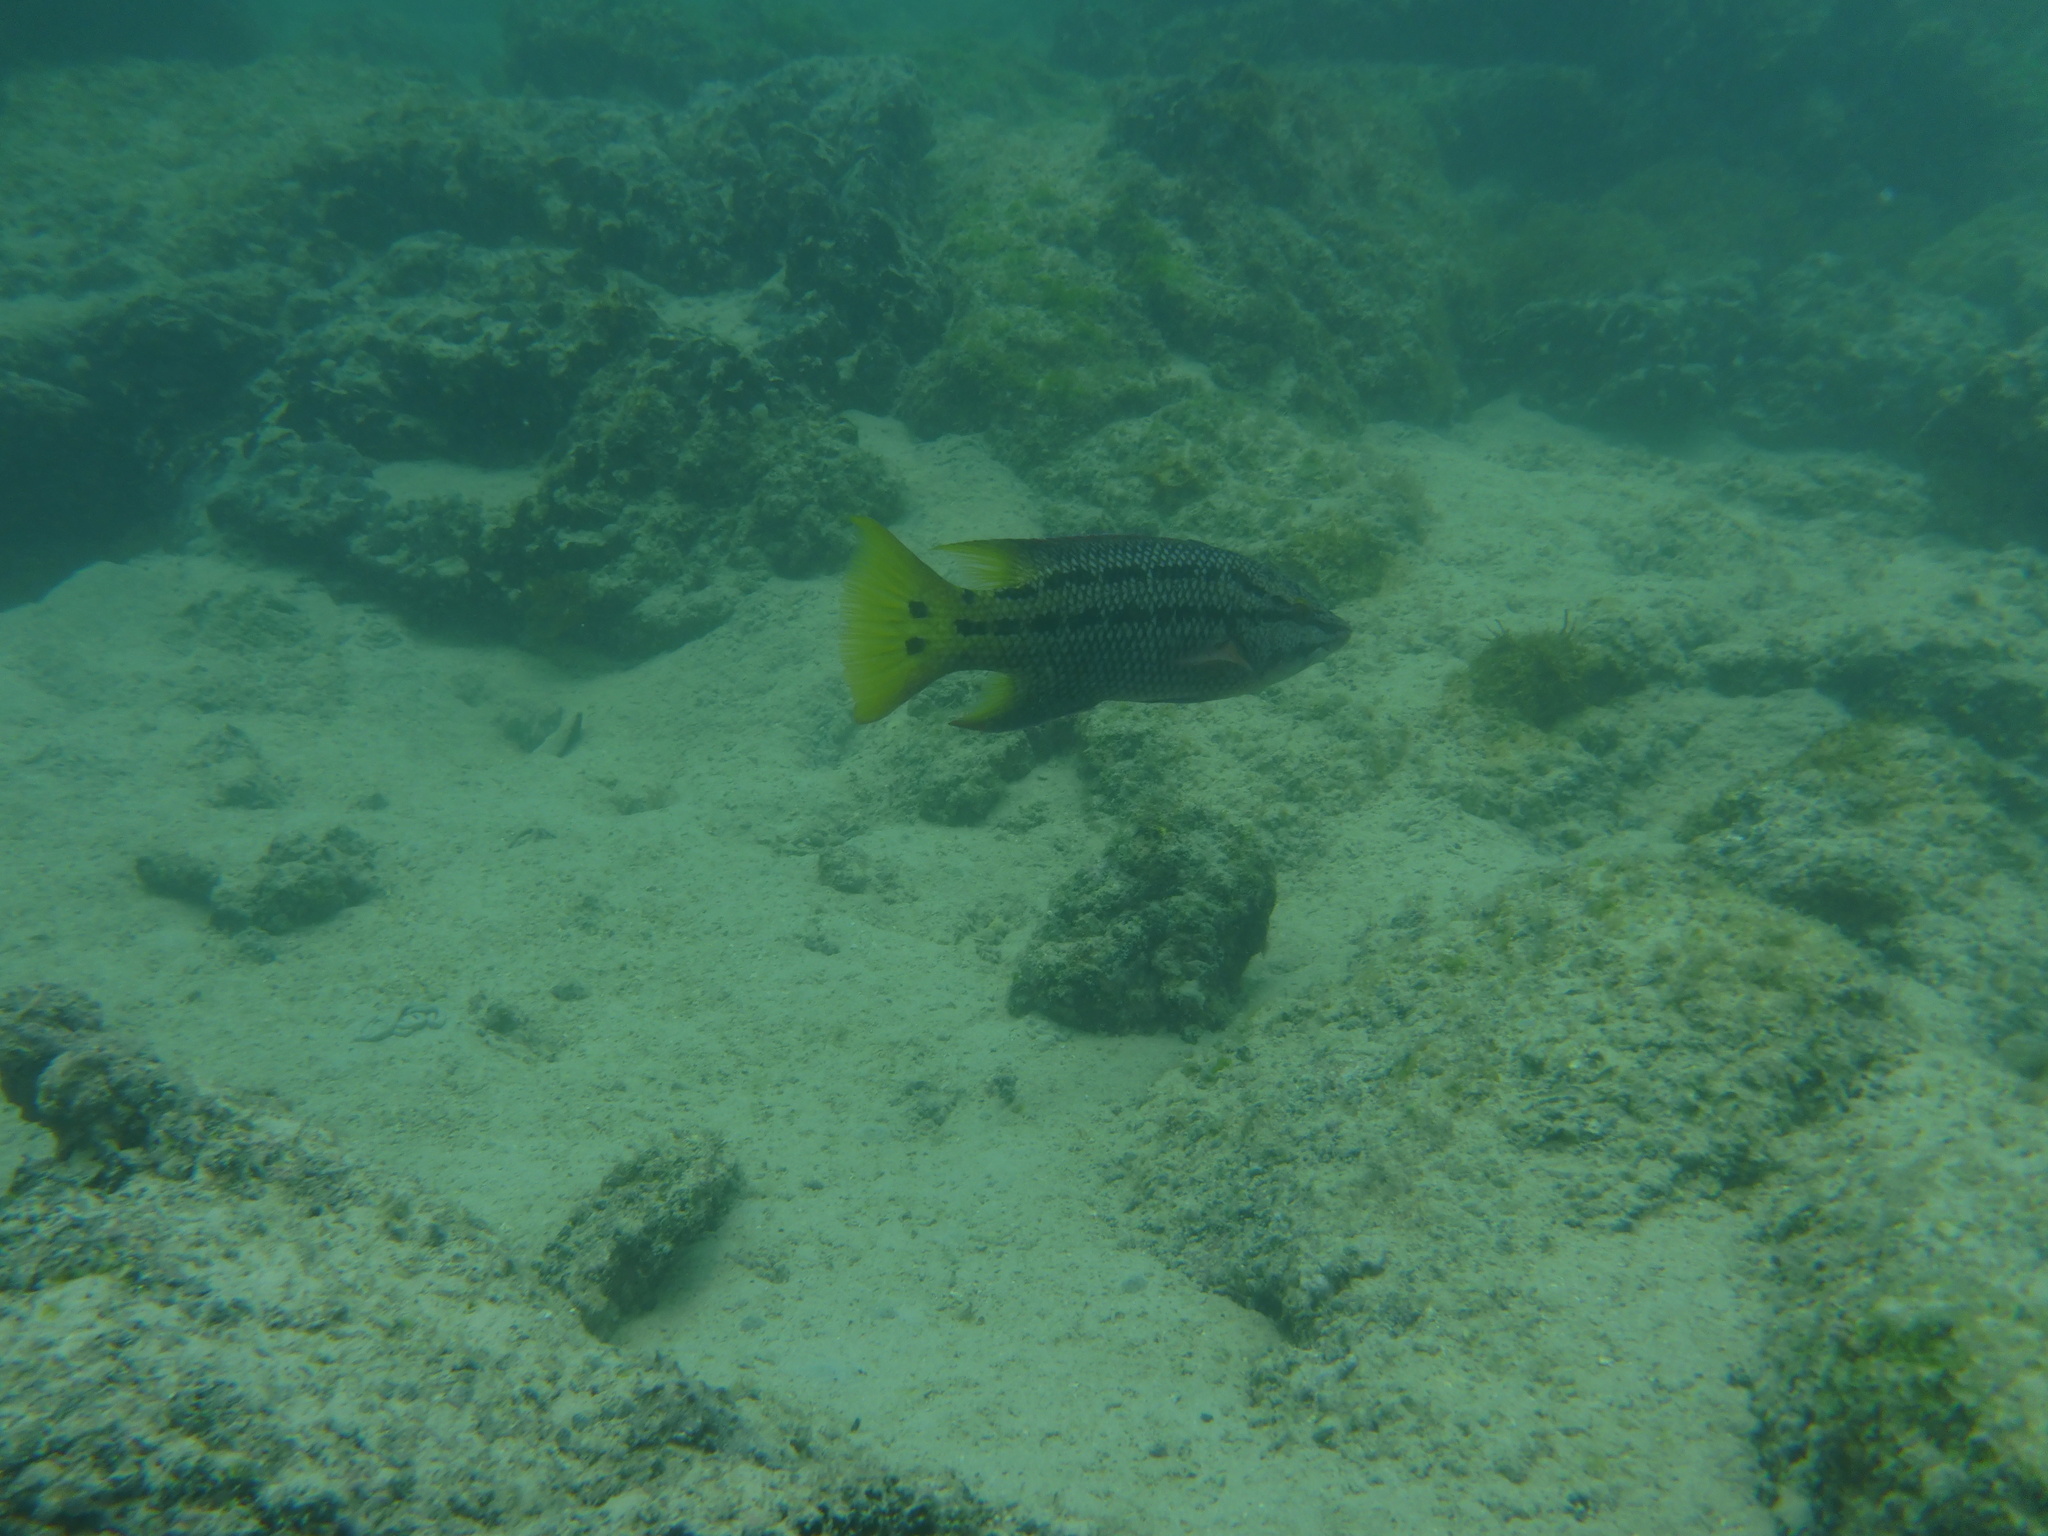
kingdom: Animalia
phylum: Chordata
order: Perciformes
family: Labridae
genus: Bodianus
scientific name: Bodianus diplotaenia
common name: Mexican hogfish
